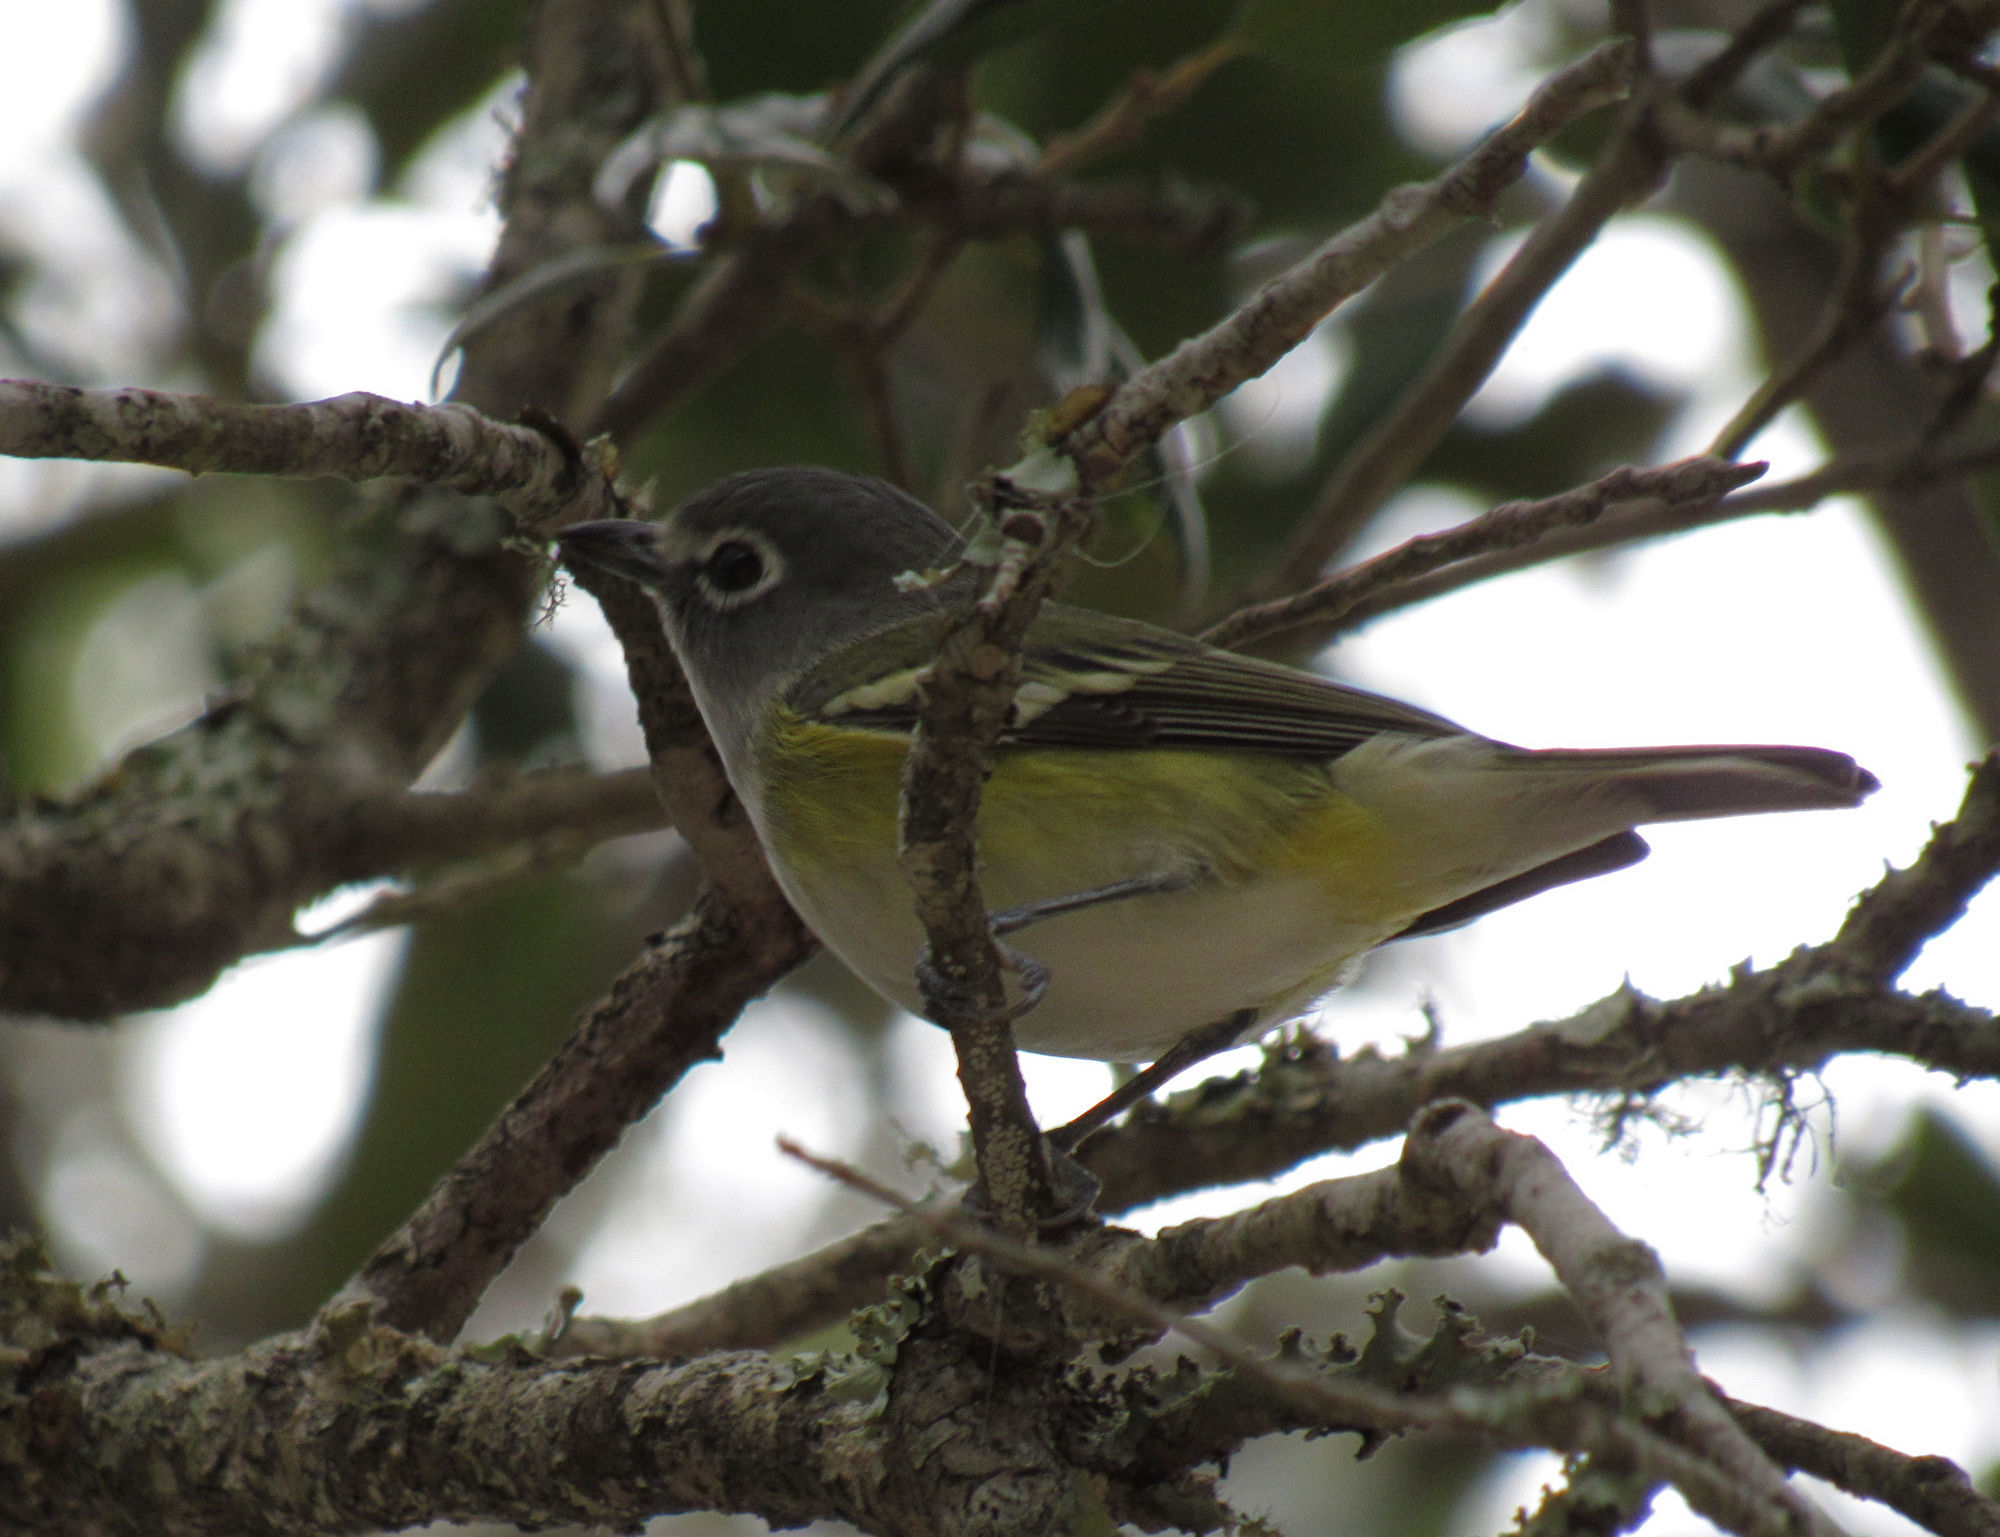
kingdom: Animalia
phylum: Chordata
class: Aves
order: Passeriformes
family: Vireonidae
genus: Vireo
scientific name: Vireo solitarius
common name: Blue-headed vireo
